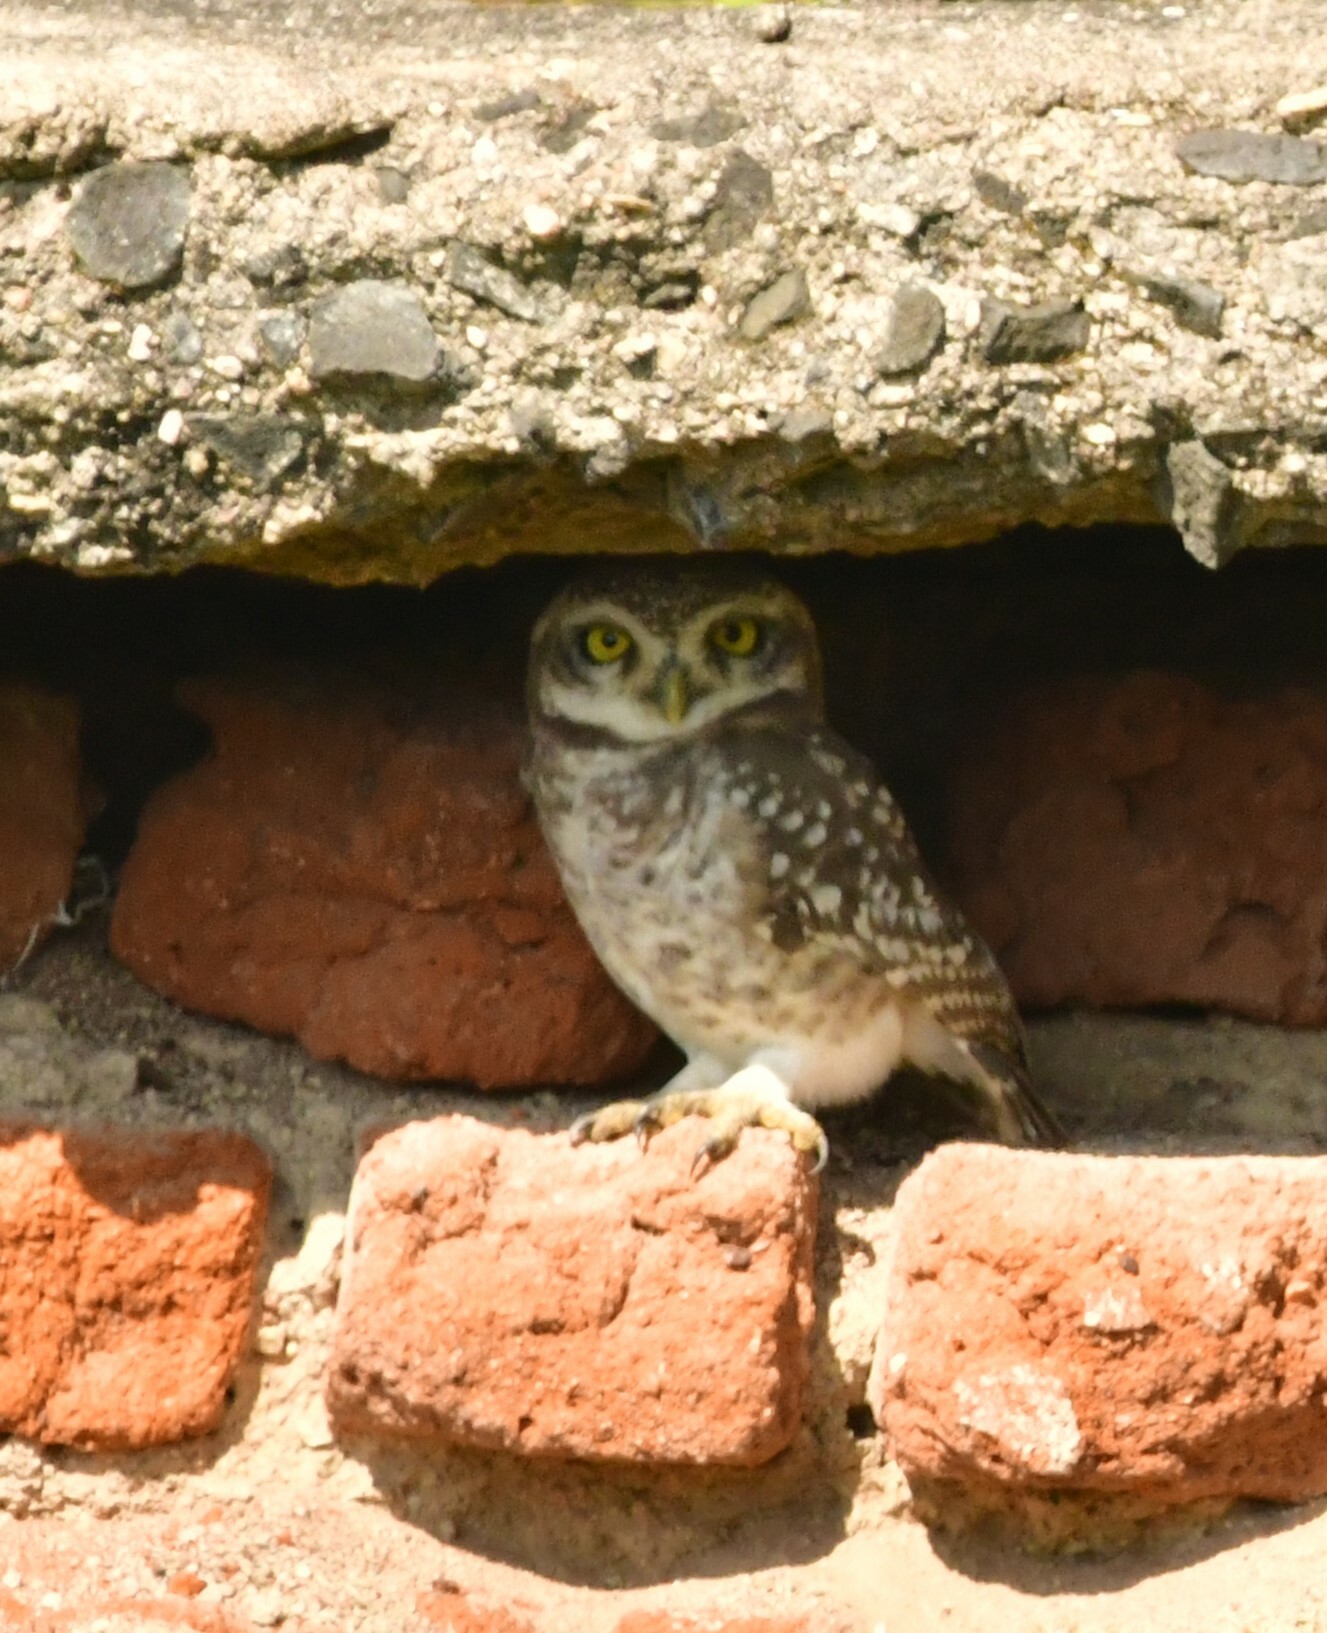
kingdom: Animalia
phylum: Chordata
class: Aves
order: Strigiformes
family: Strigidae
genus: Athene
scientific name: Athene brama
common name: Spotted owlet
